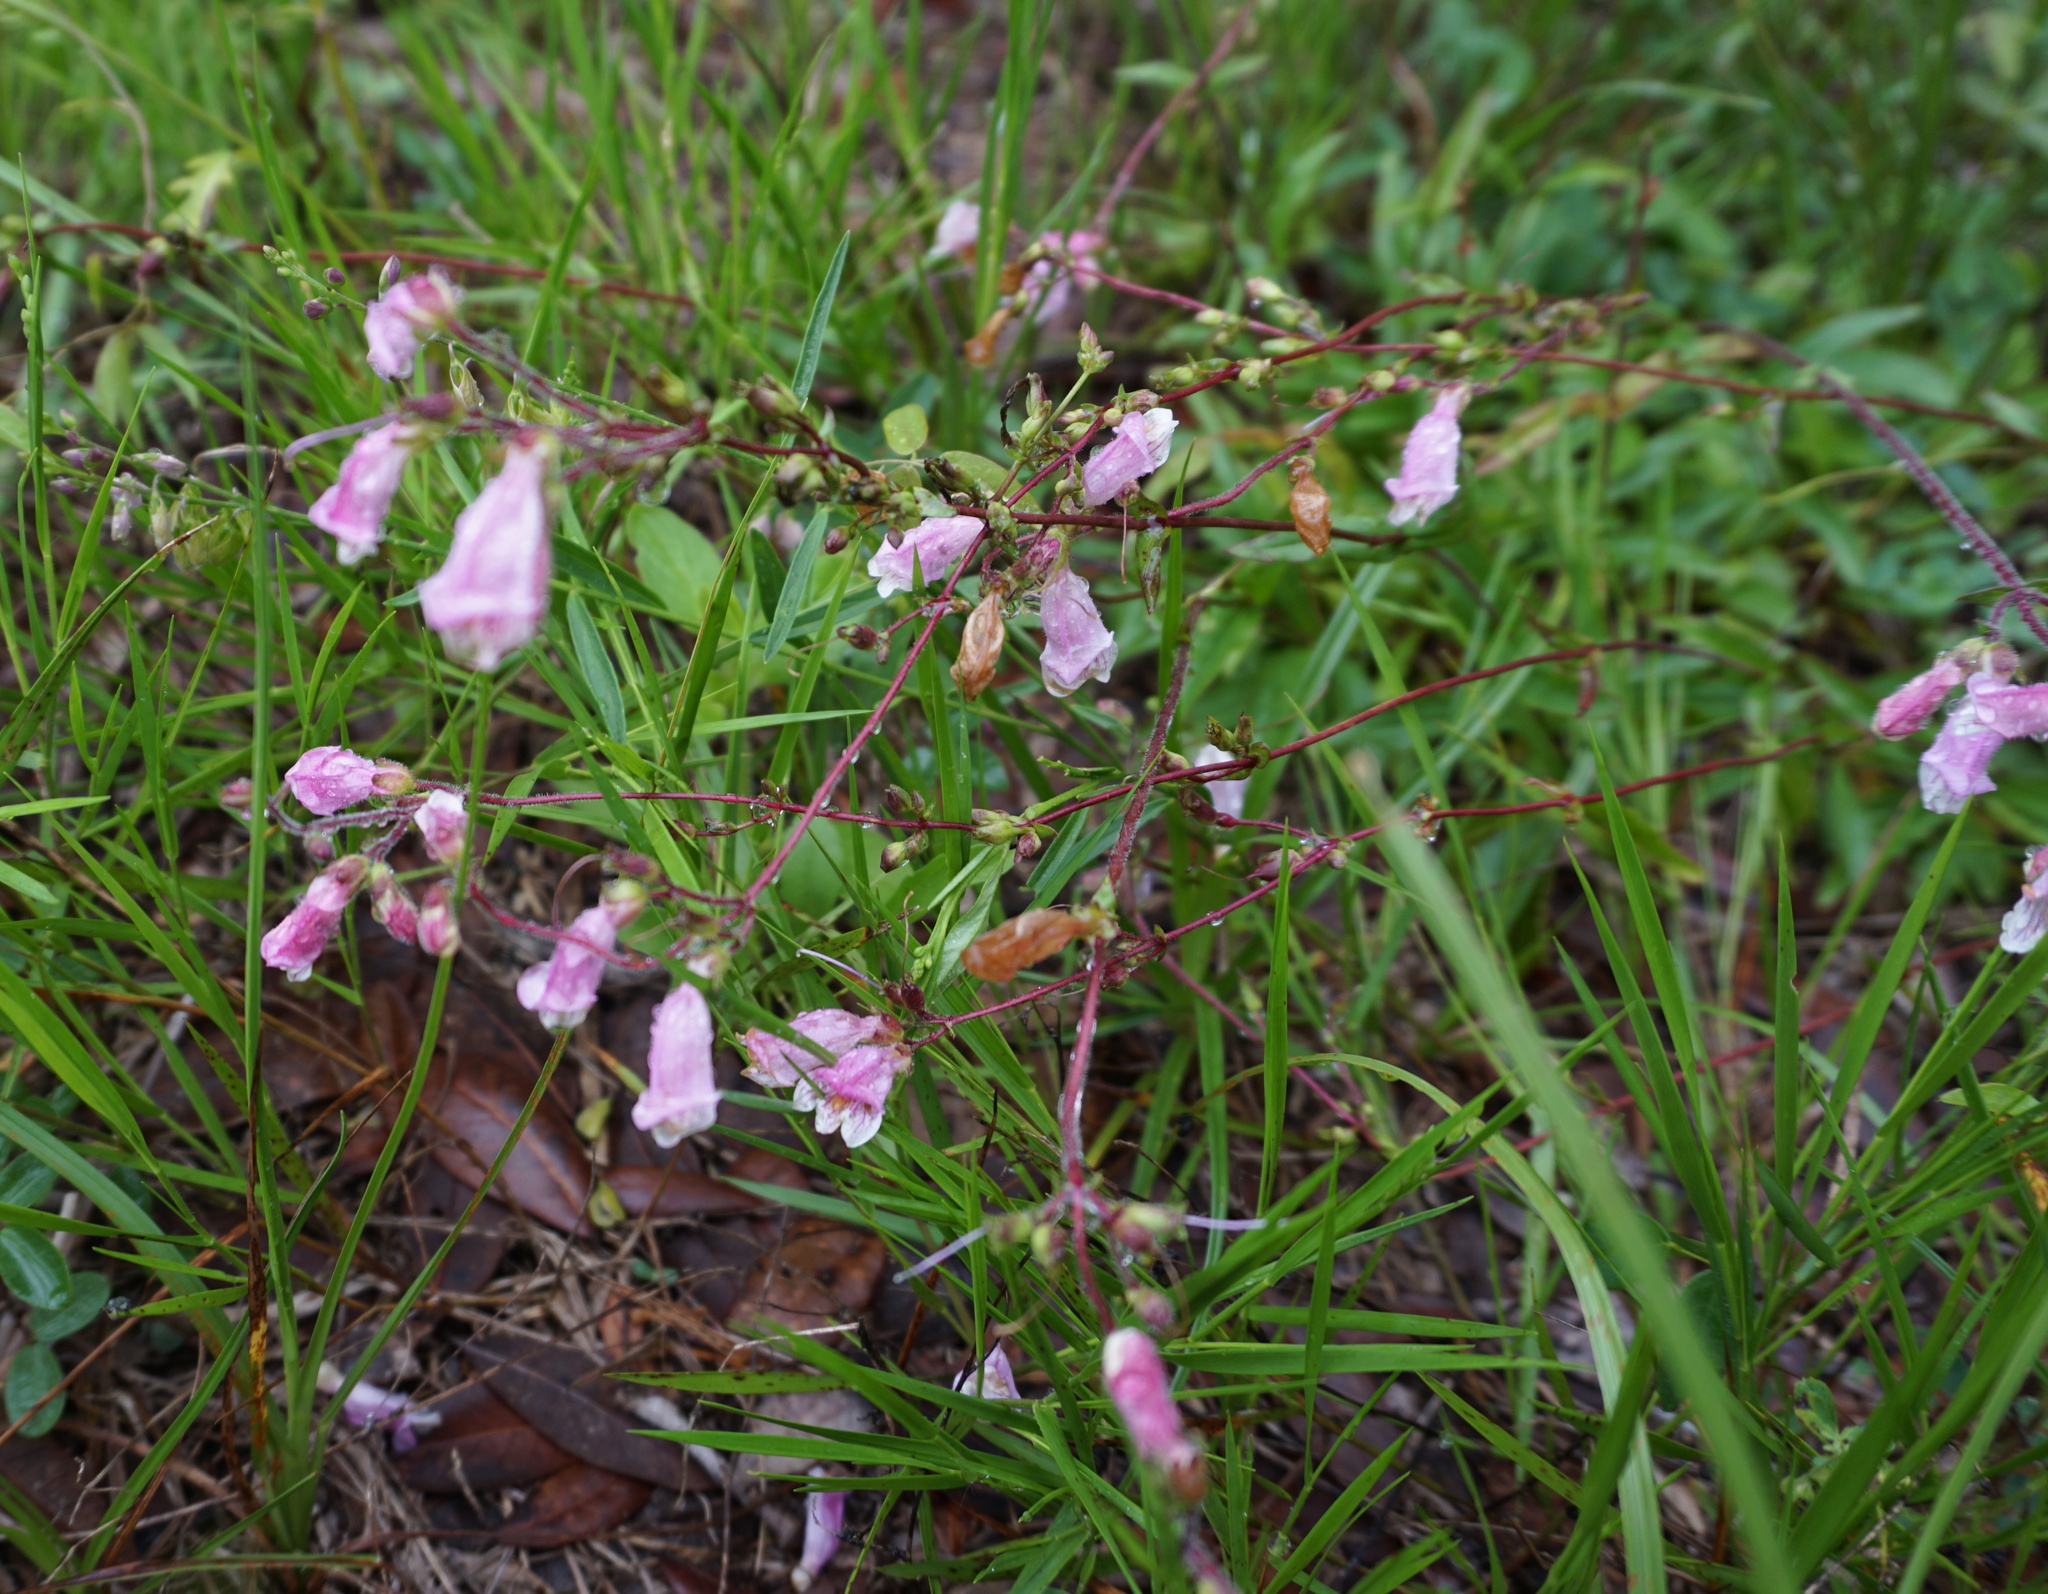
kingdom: Plantae
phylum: Tracheophyta
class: Magnoliopsida
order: Lamiales
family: Plantaginaceae
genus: Penstemon
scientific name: Penstemon australis
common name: Southeastern beardtongue
